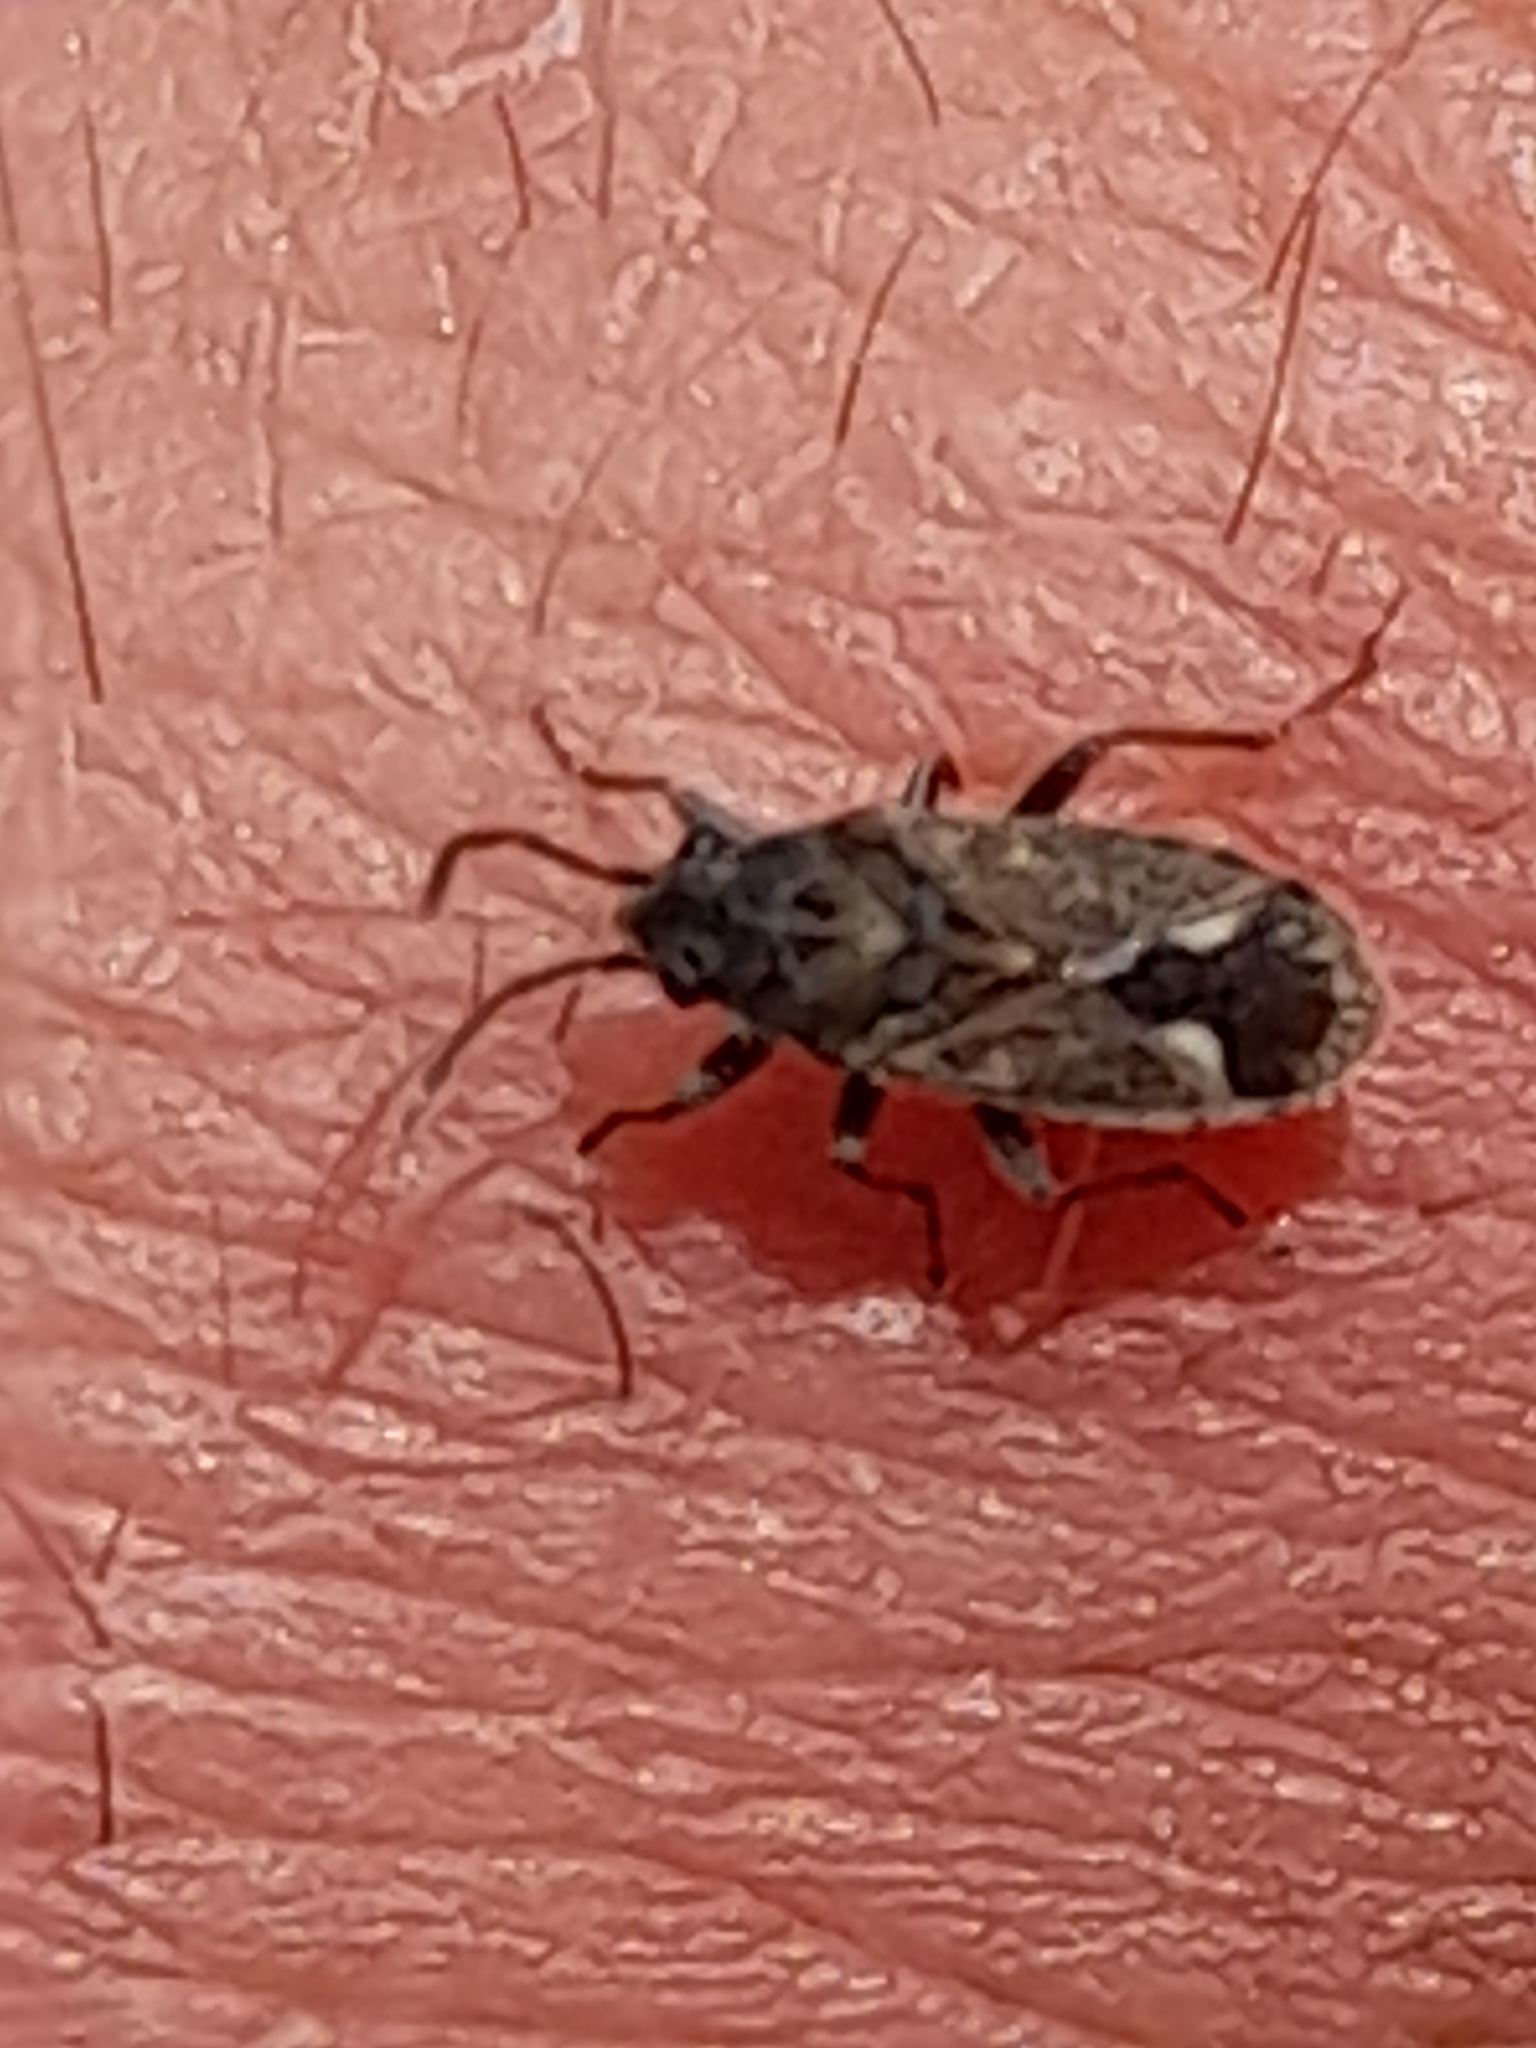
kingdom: Animalia
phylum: Arthropoda
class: Insecta
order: Hemiptera
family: Lygaeidae
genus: Lygaeosoma
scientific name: Lygaeosoma sardeum
